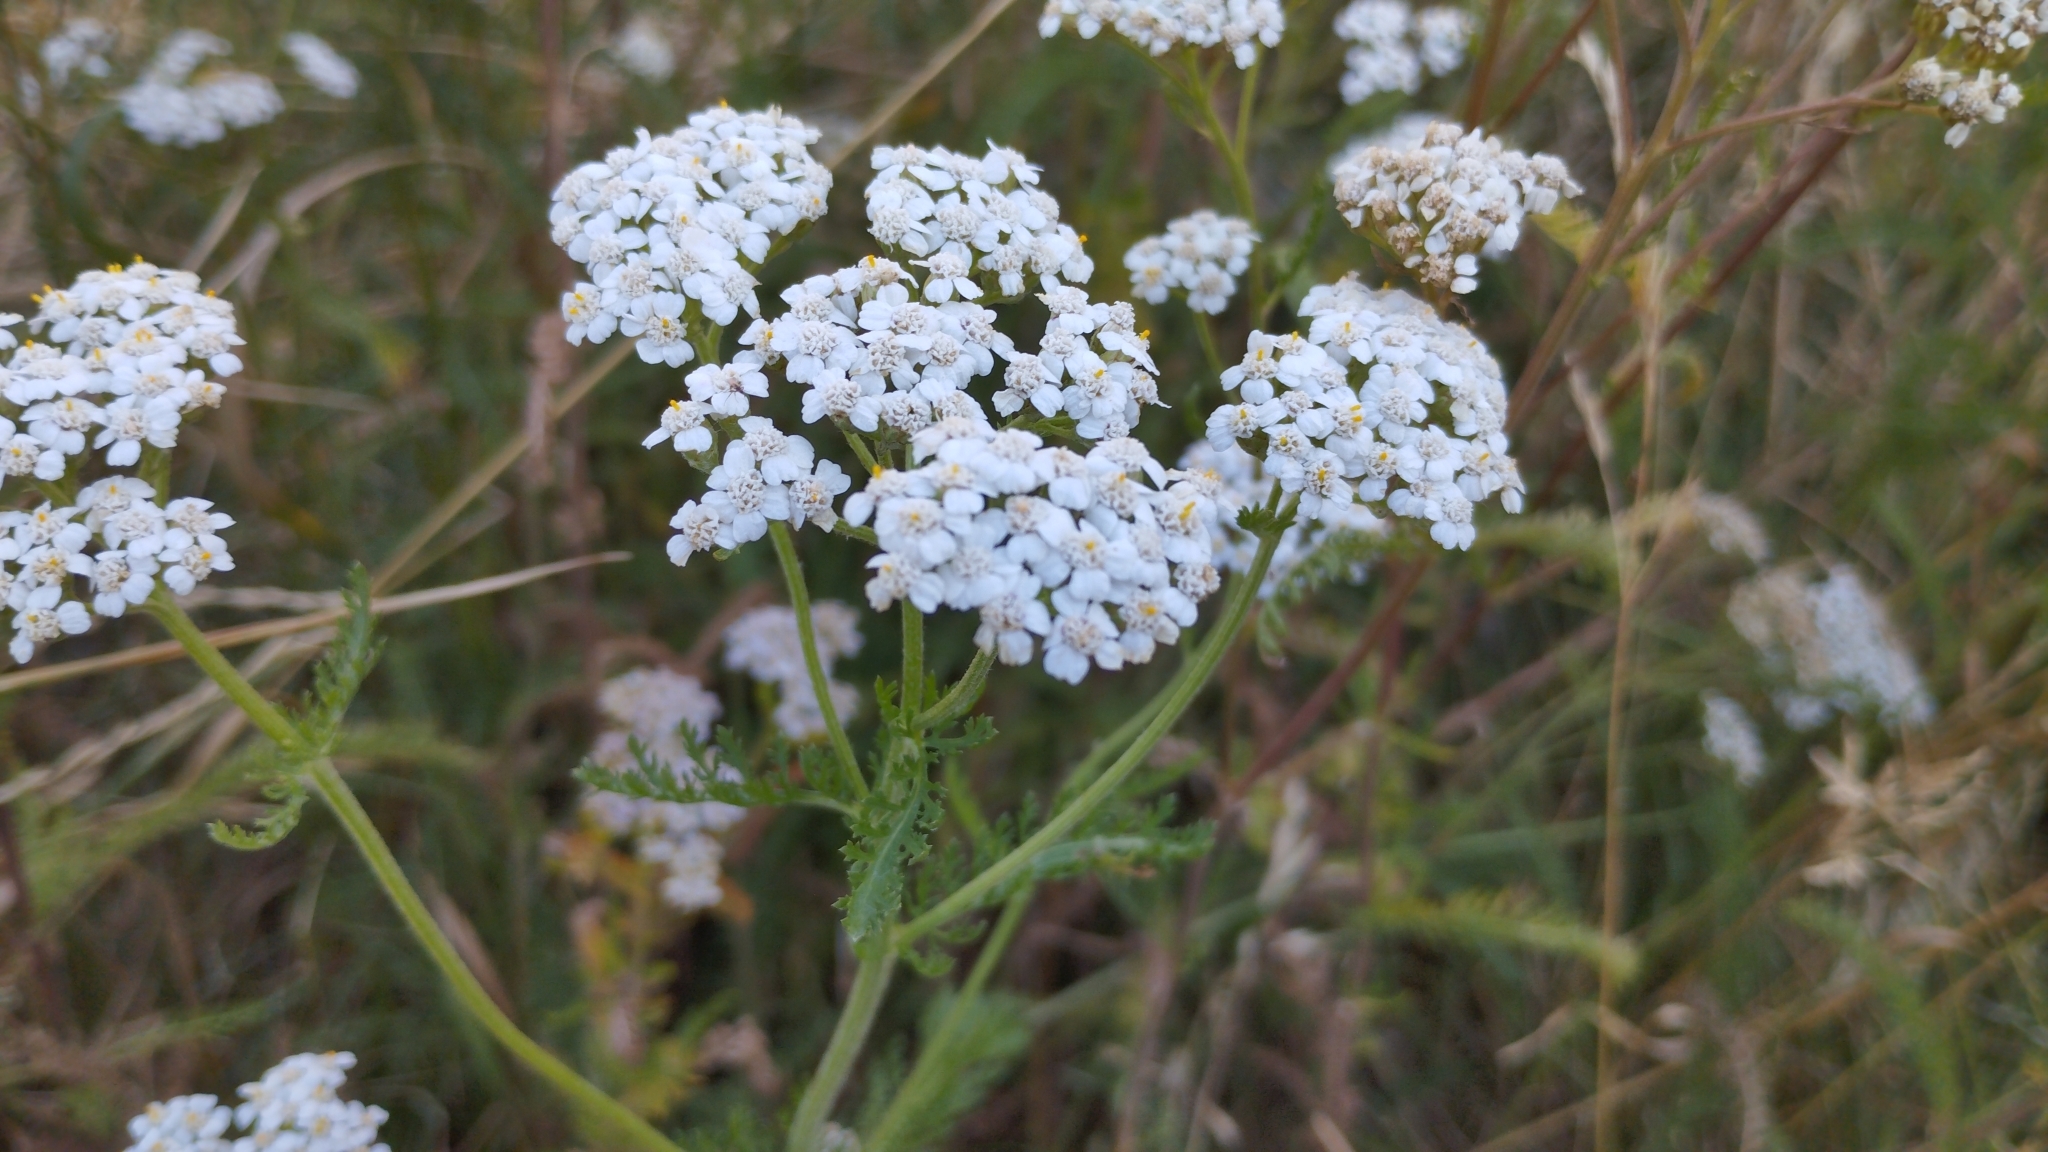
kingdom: Plantae
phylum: Tracheophyta
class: Magnoliopsida
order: Asterales
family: Asteraceae
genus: Achillea
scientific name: Achillea millefolium
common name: Yarrow
